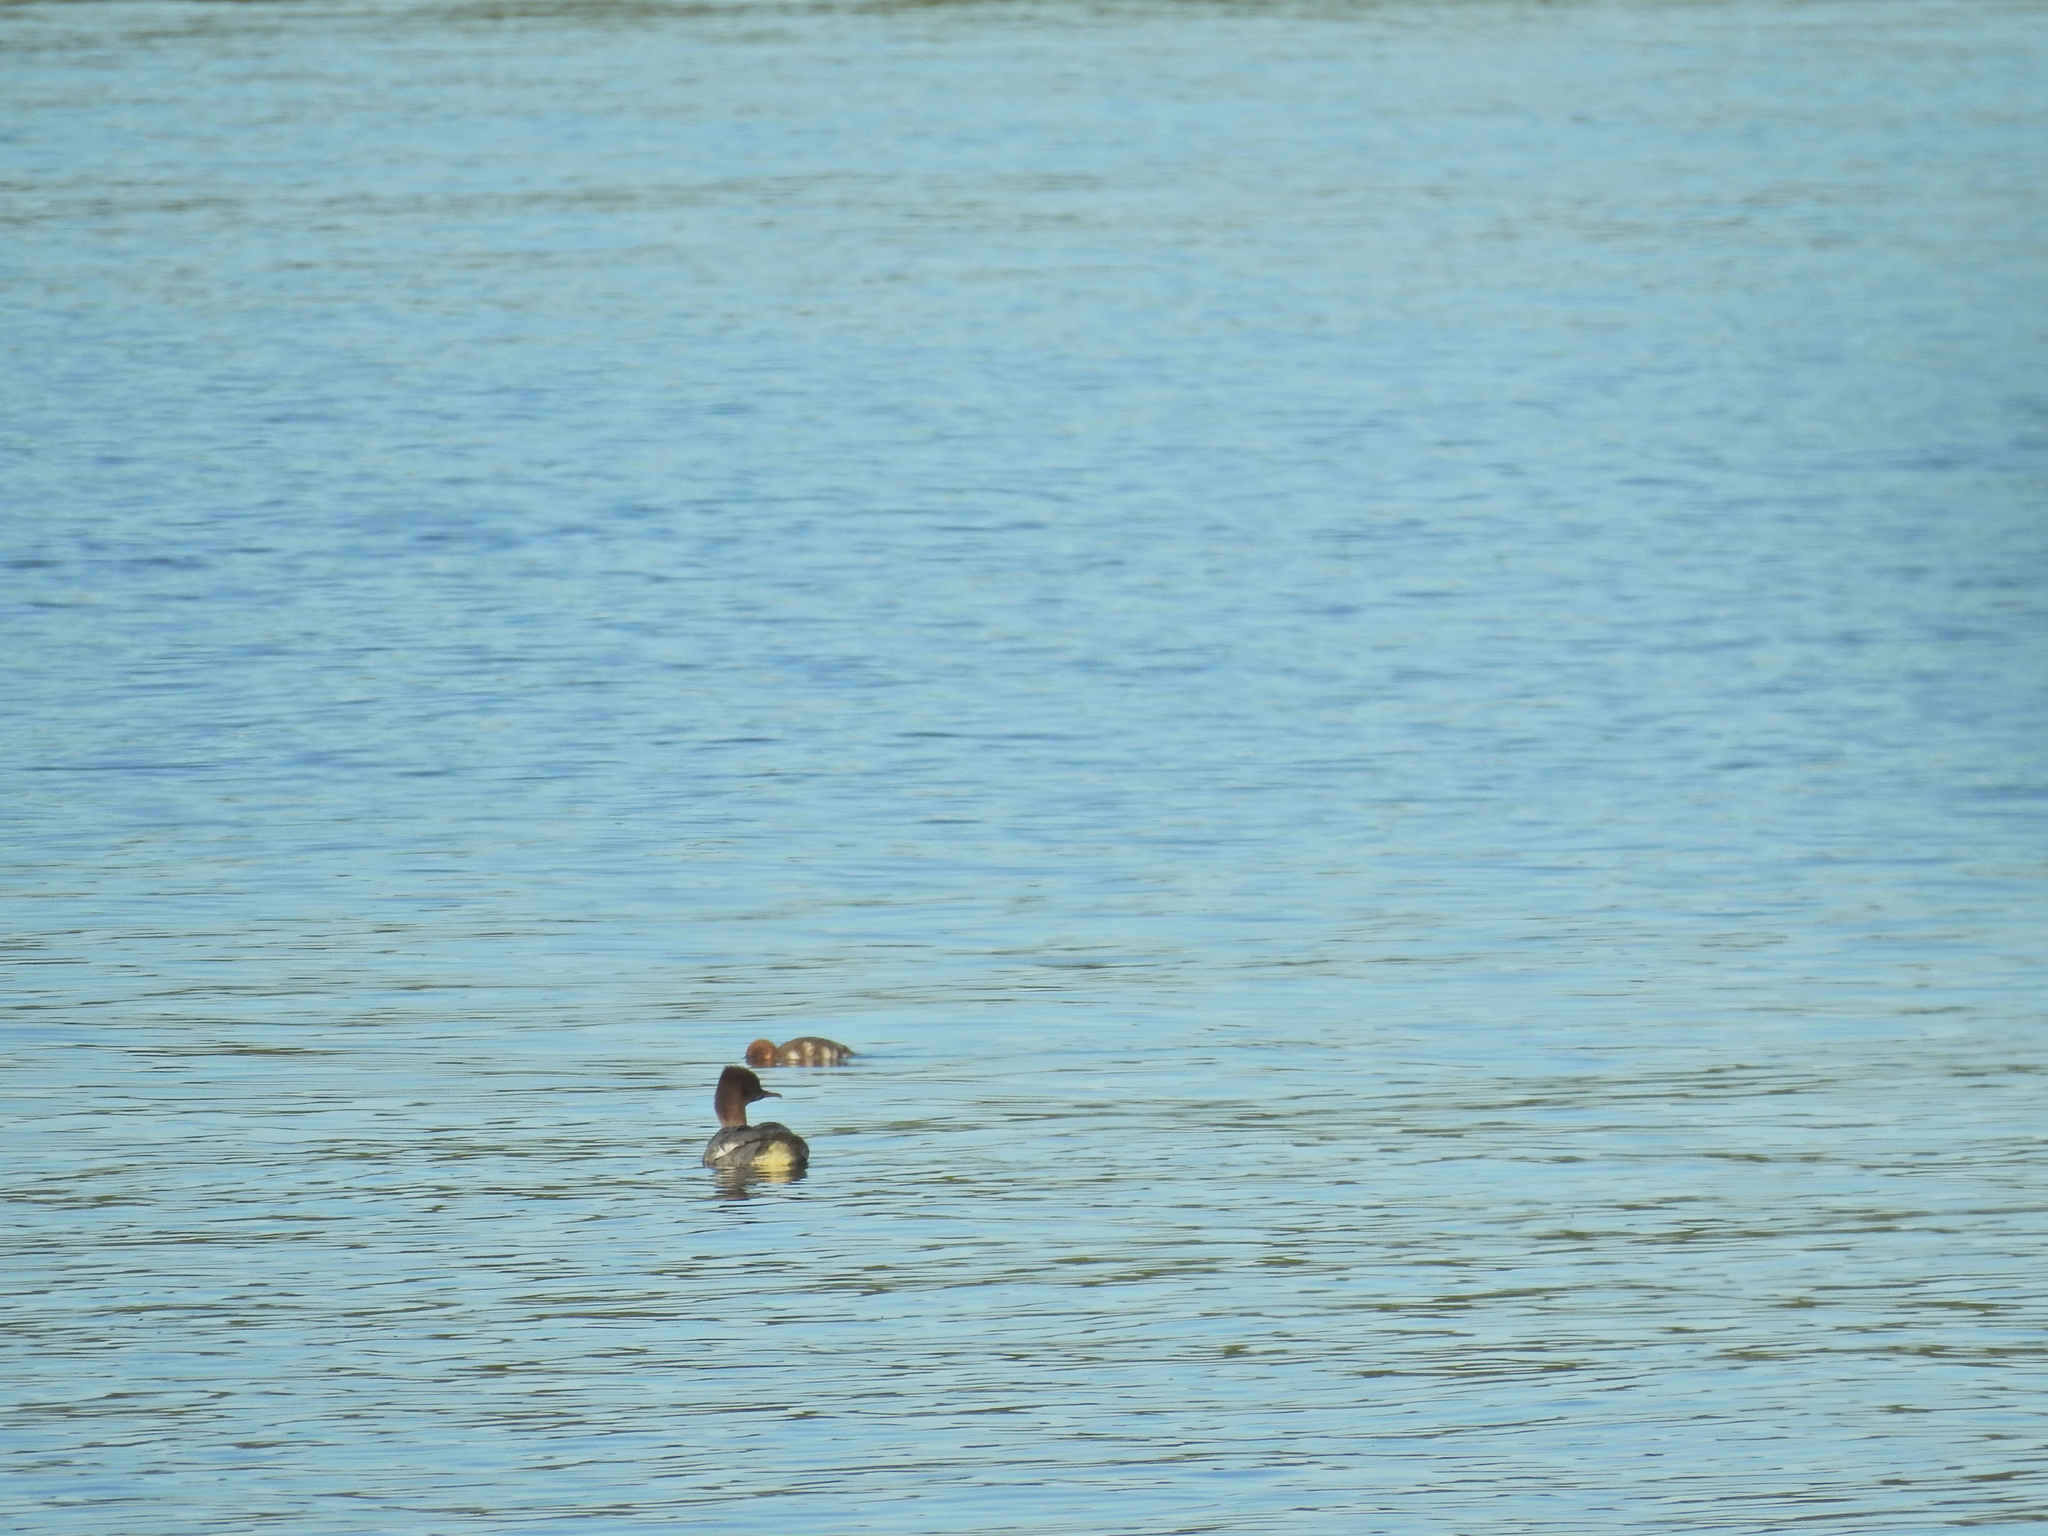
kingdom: Animalia
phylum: Chordata
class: Aves
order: Anseriformes
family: Anatidae
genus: Mergus
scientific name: Mergus merganser
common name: Common merganser
